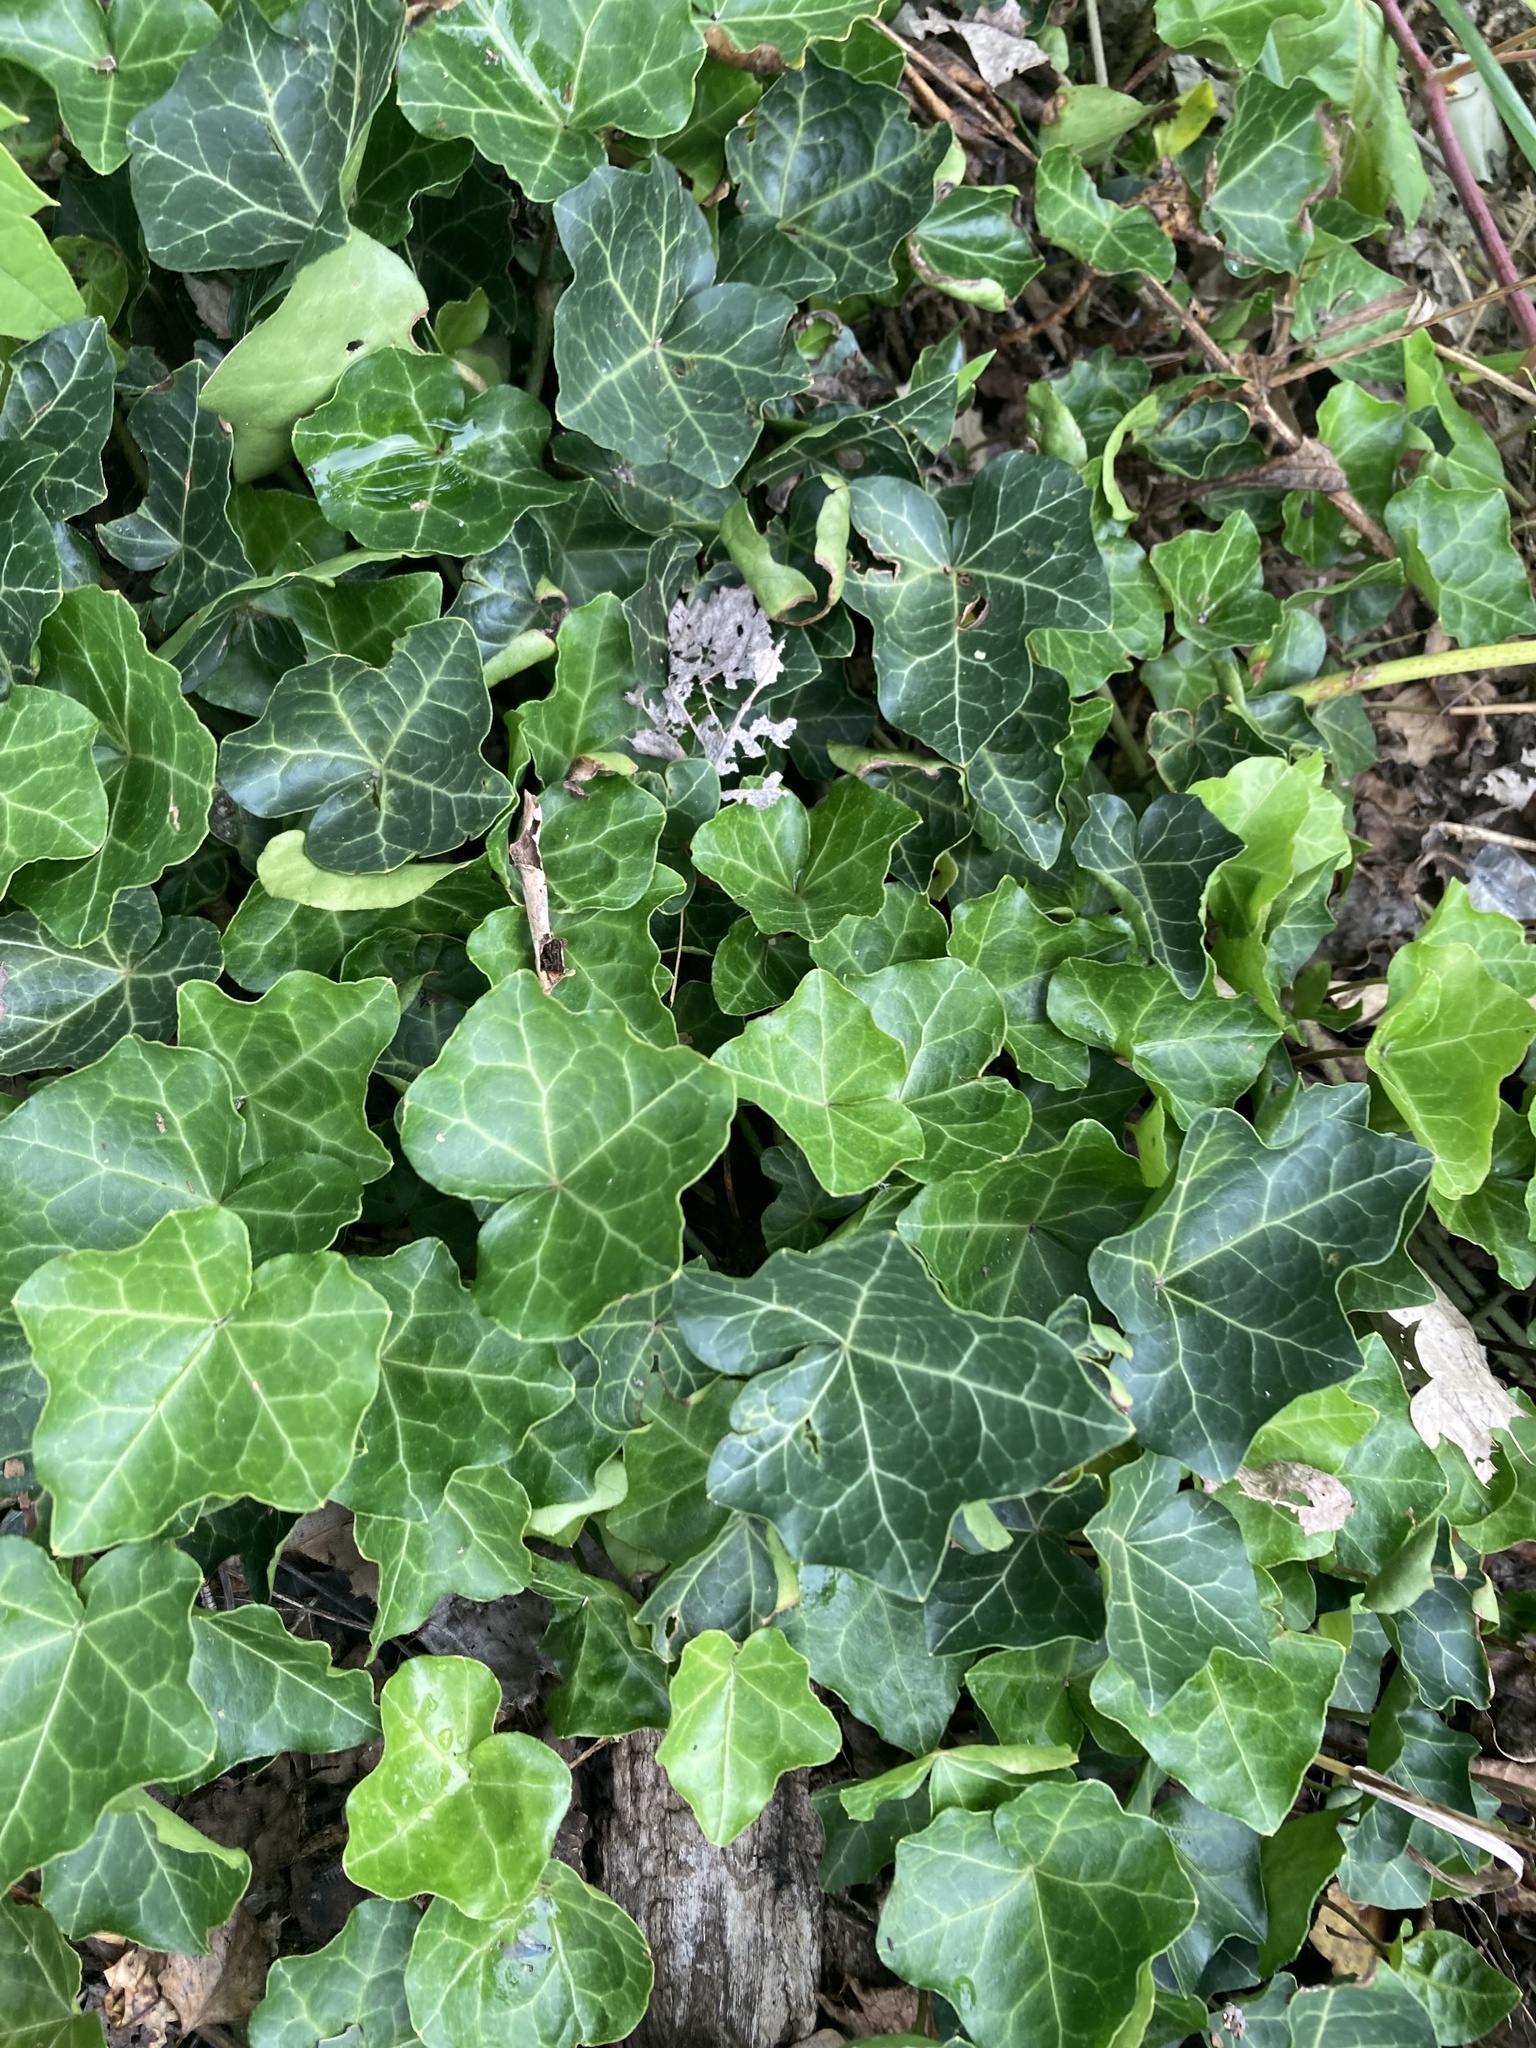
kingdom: Plantae
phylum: Tracheophyta
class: Magnoliopsida
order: Apiales
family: Araliaceae
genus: Hedera
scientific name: Hedera helix
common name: Ivy
